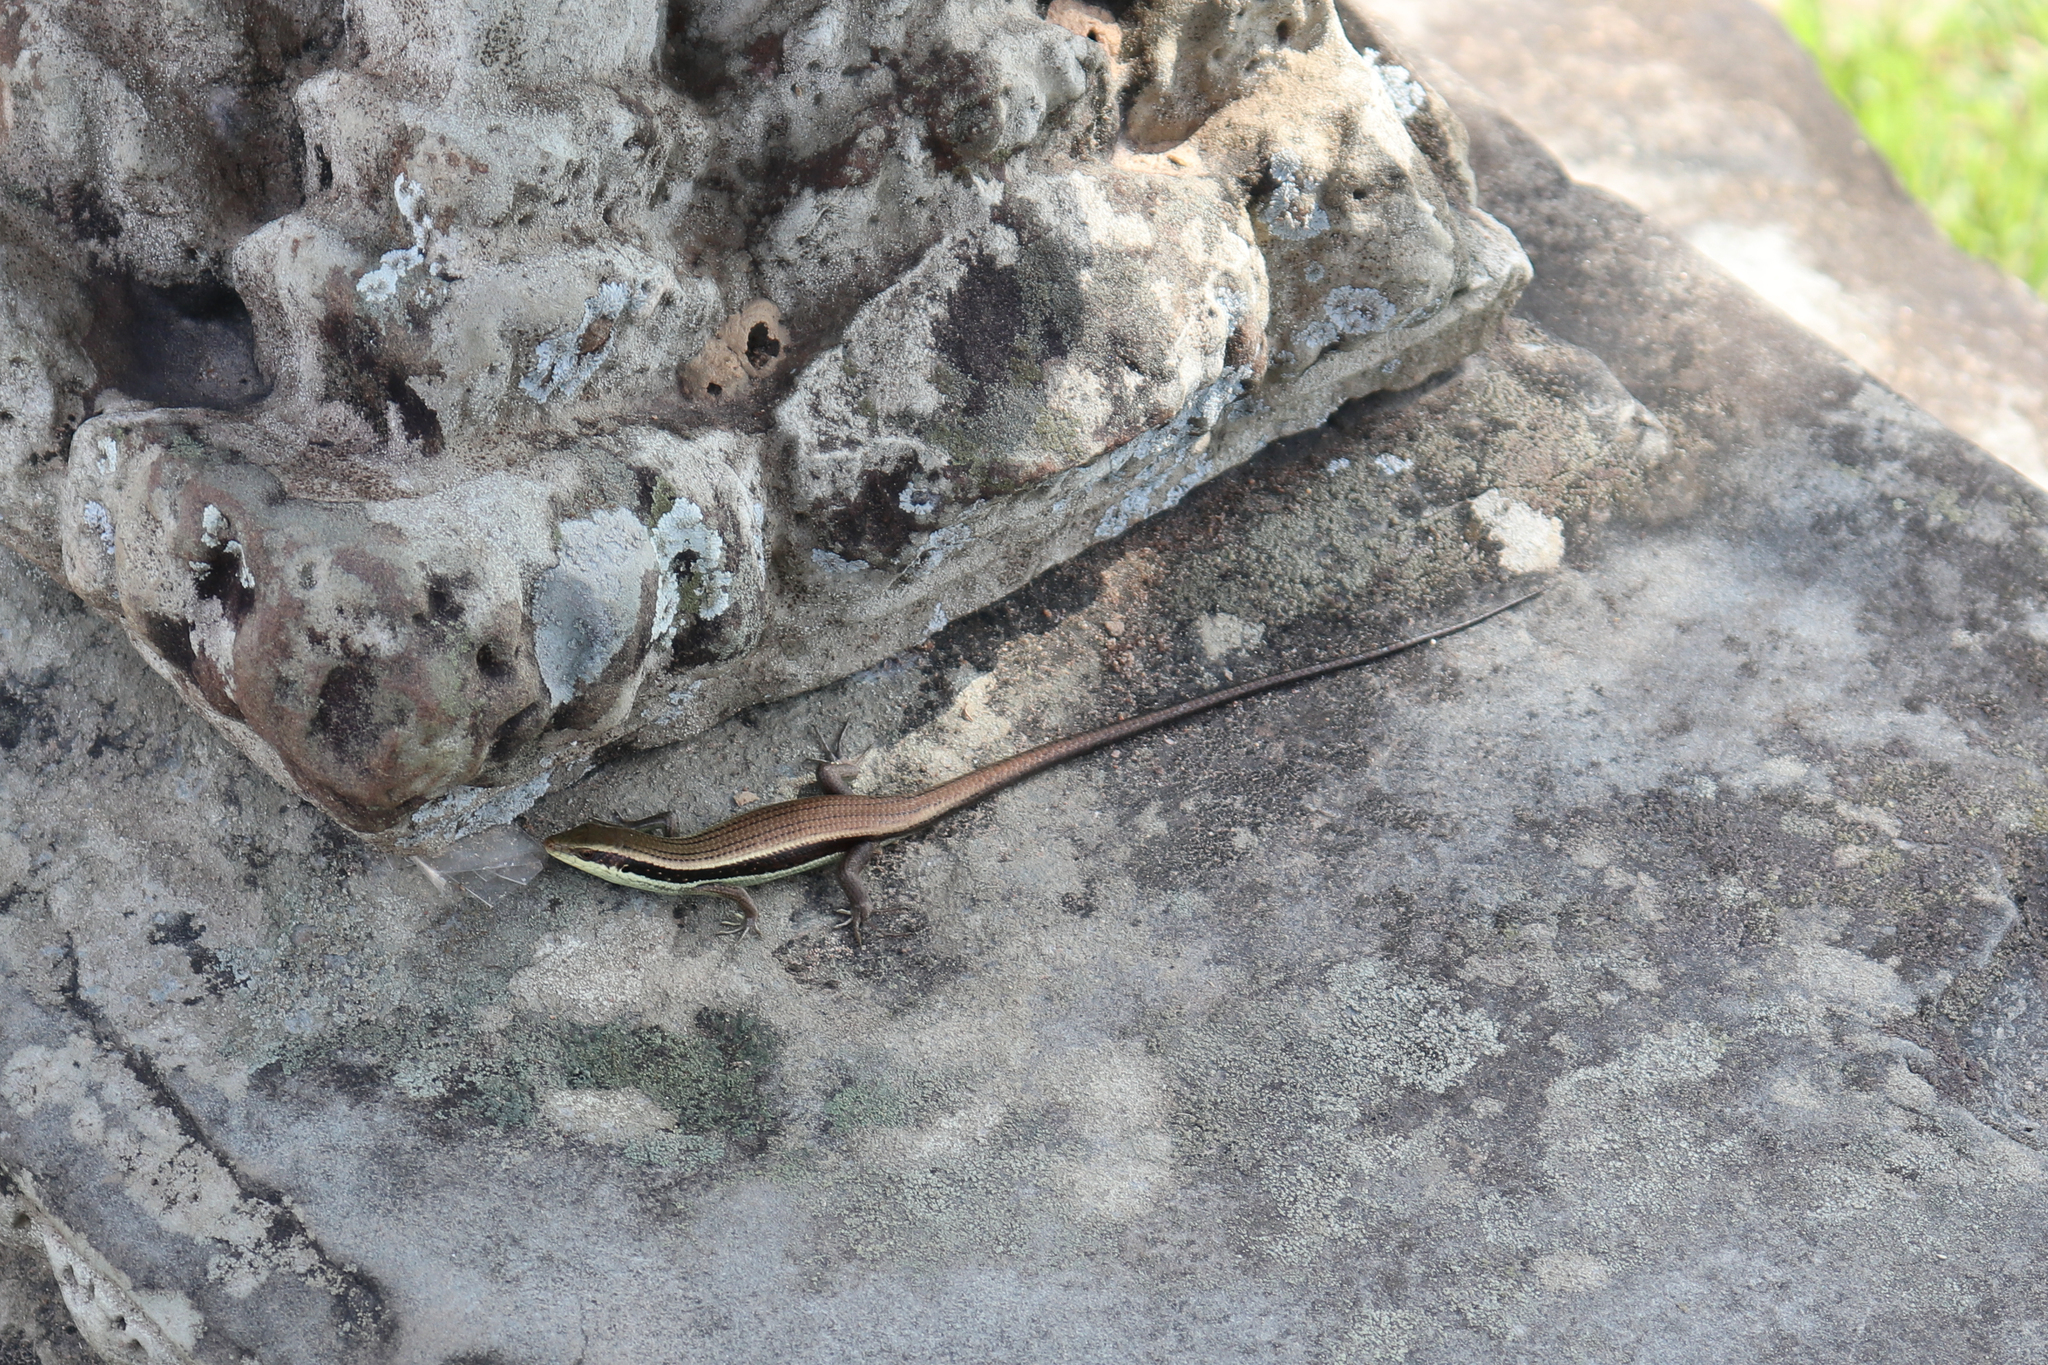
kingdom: Animalia
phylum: Chordata
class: Squamata
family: Scincidae
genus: Eutropis
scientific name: Eutropis longicaudata
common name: Long-tailed sun skink
